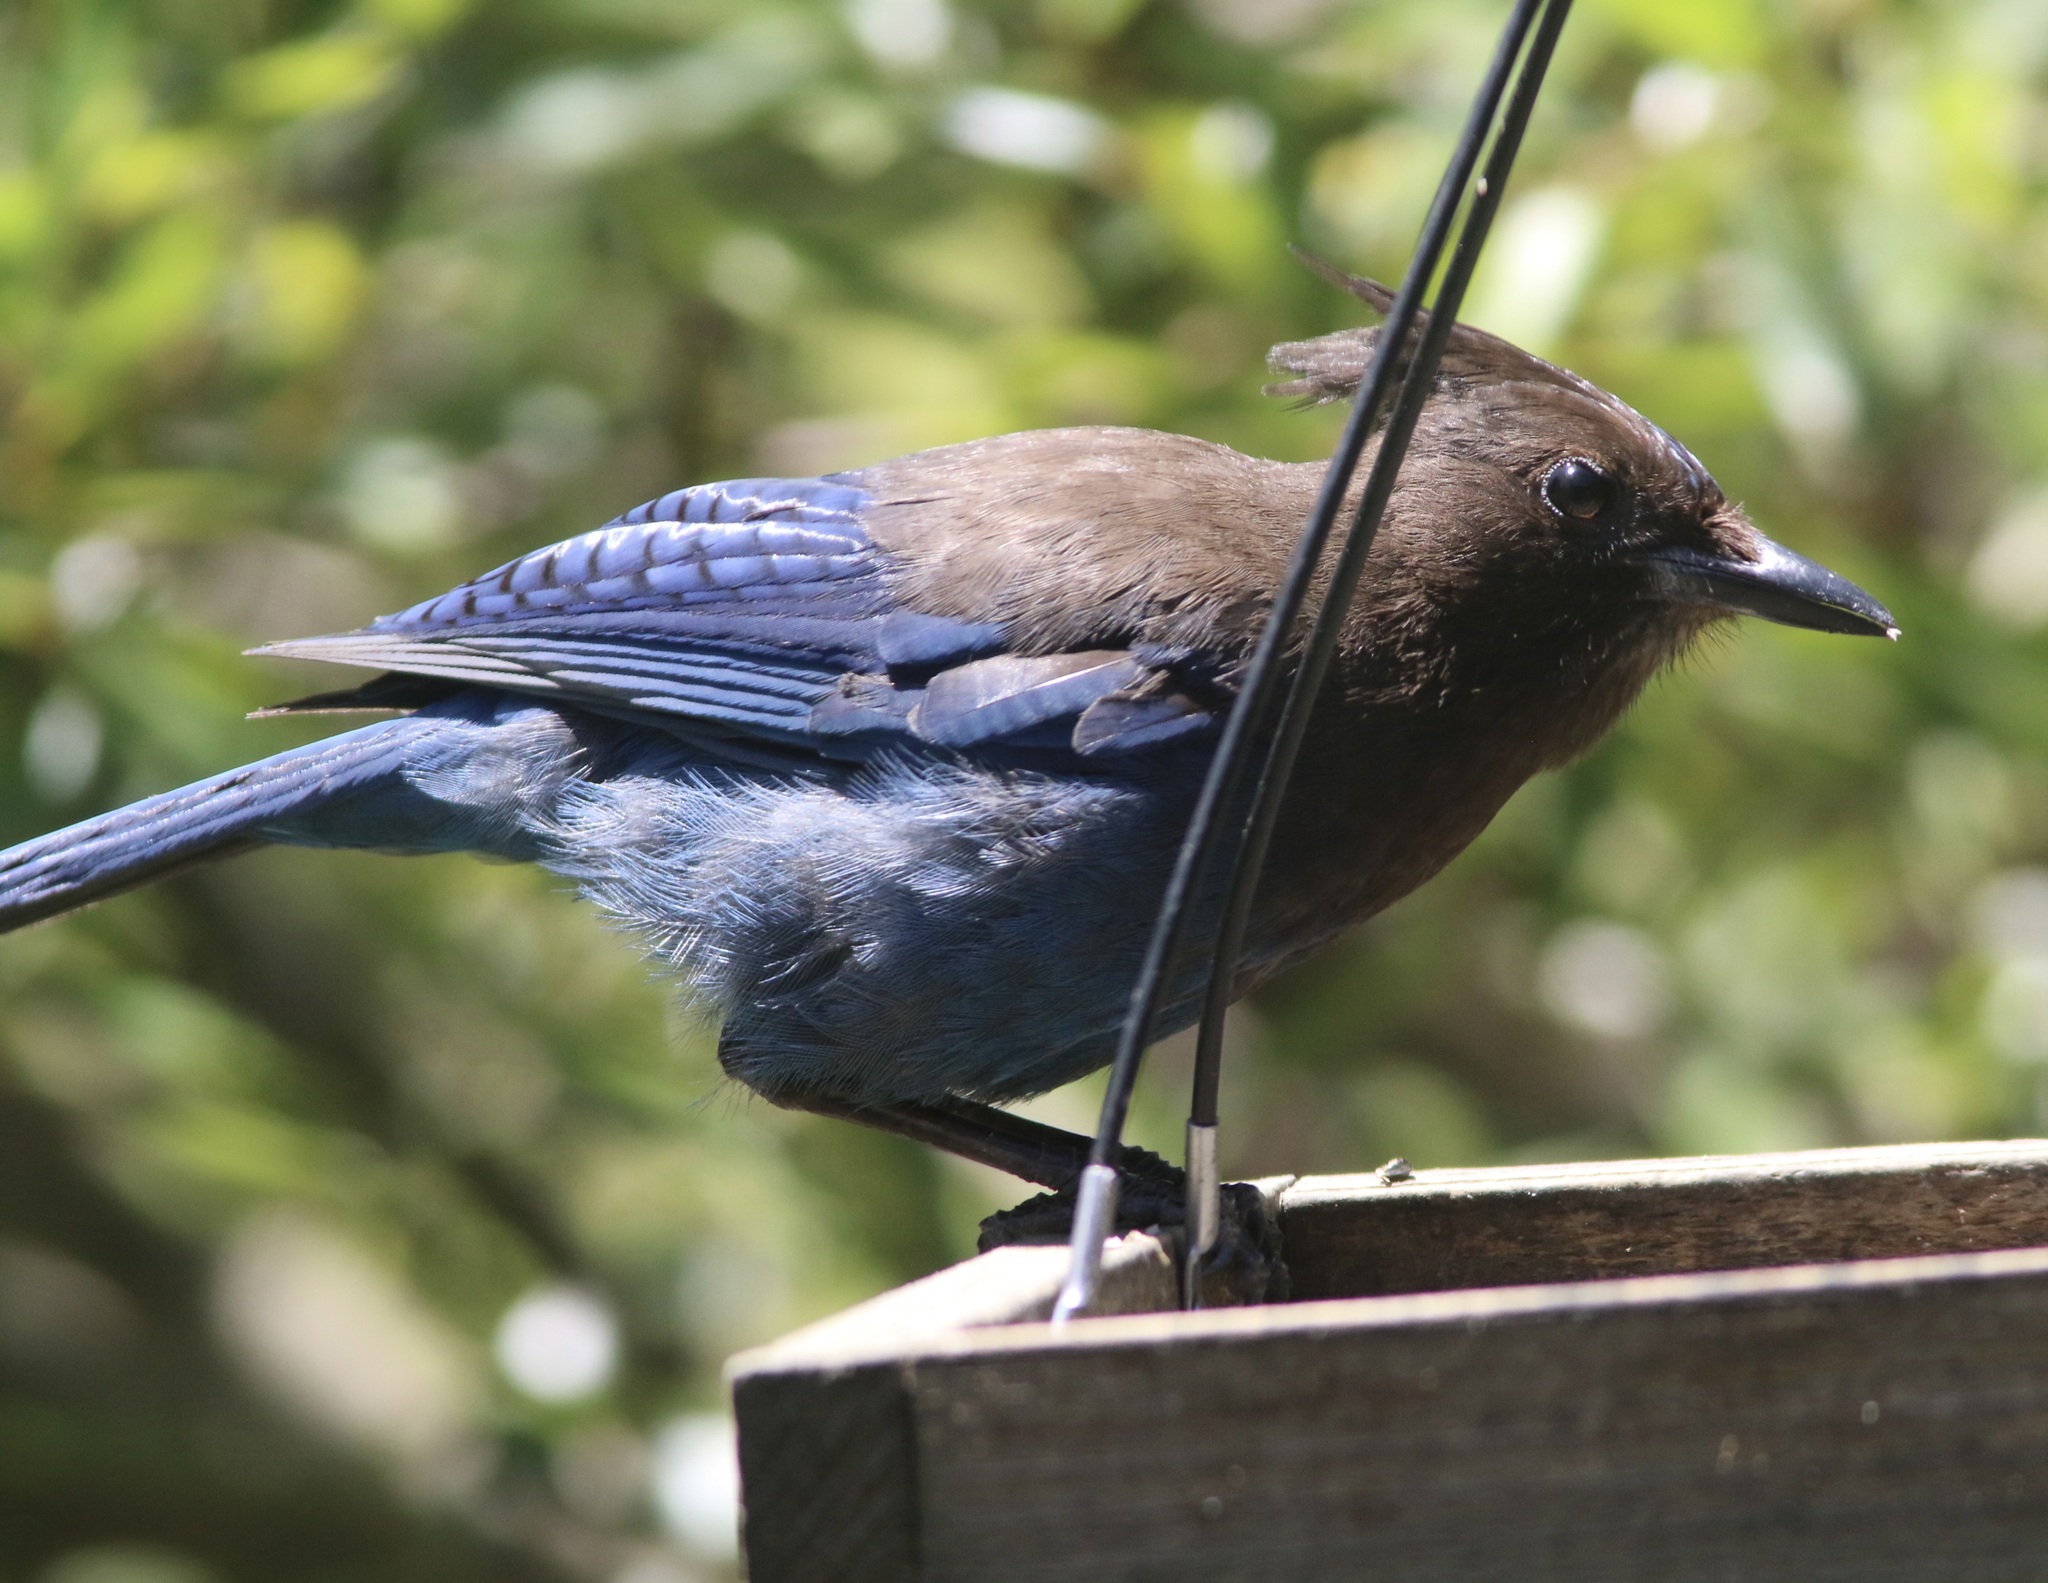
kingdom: Animalia
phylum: Chordata
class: Aves
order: Passeriformes
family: Corvidae
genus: Cyanocitta
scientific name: Cyanocitta stelleri
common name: Steller's jay
